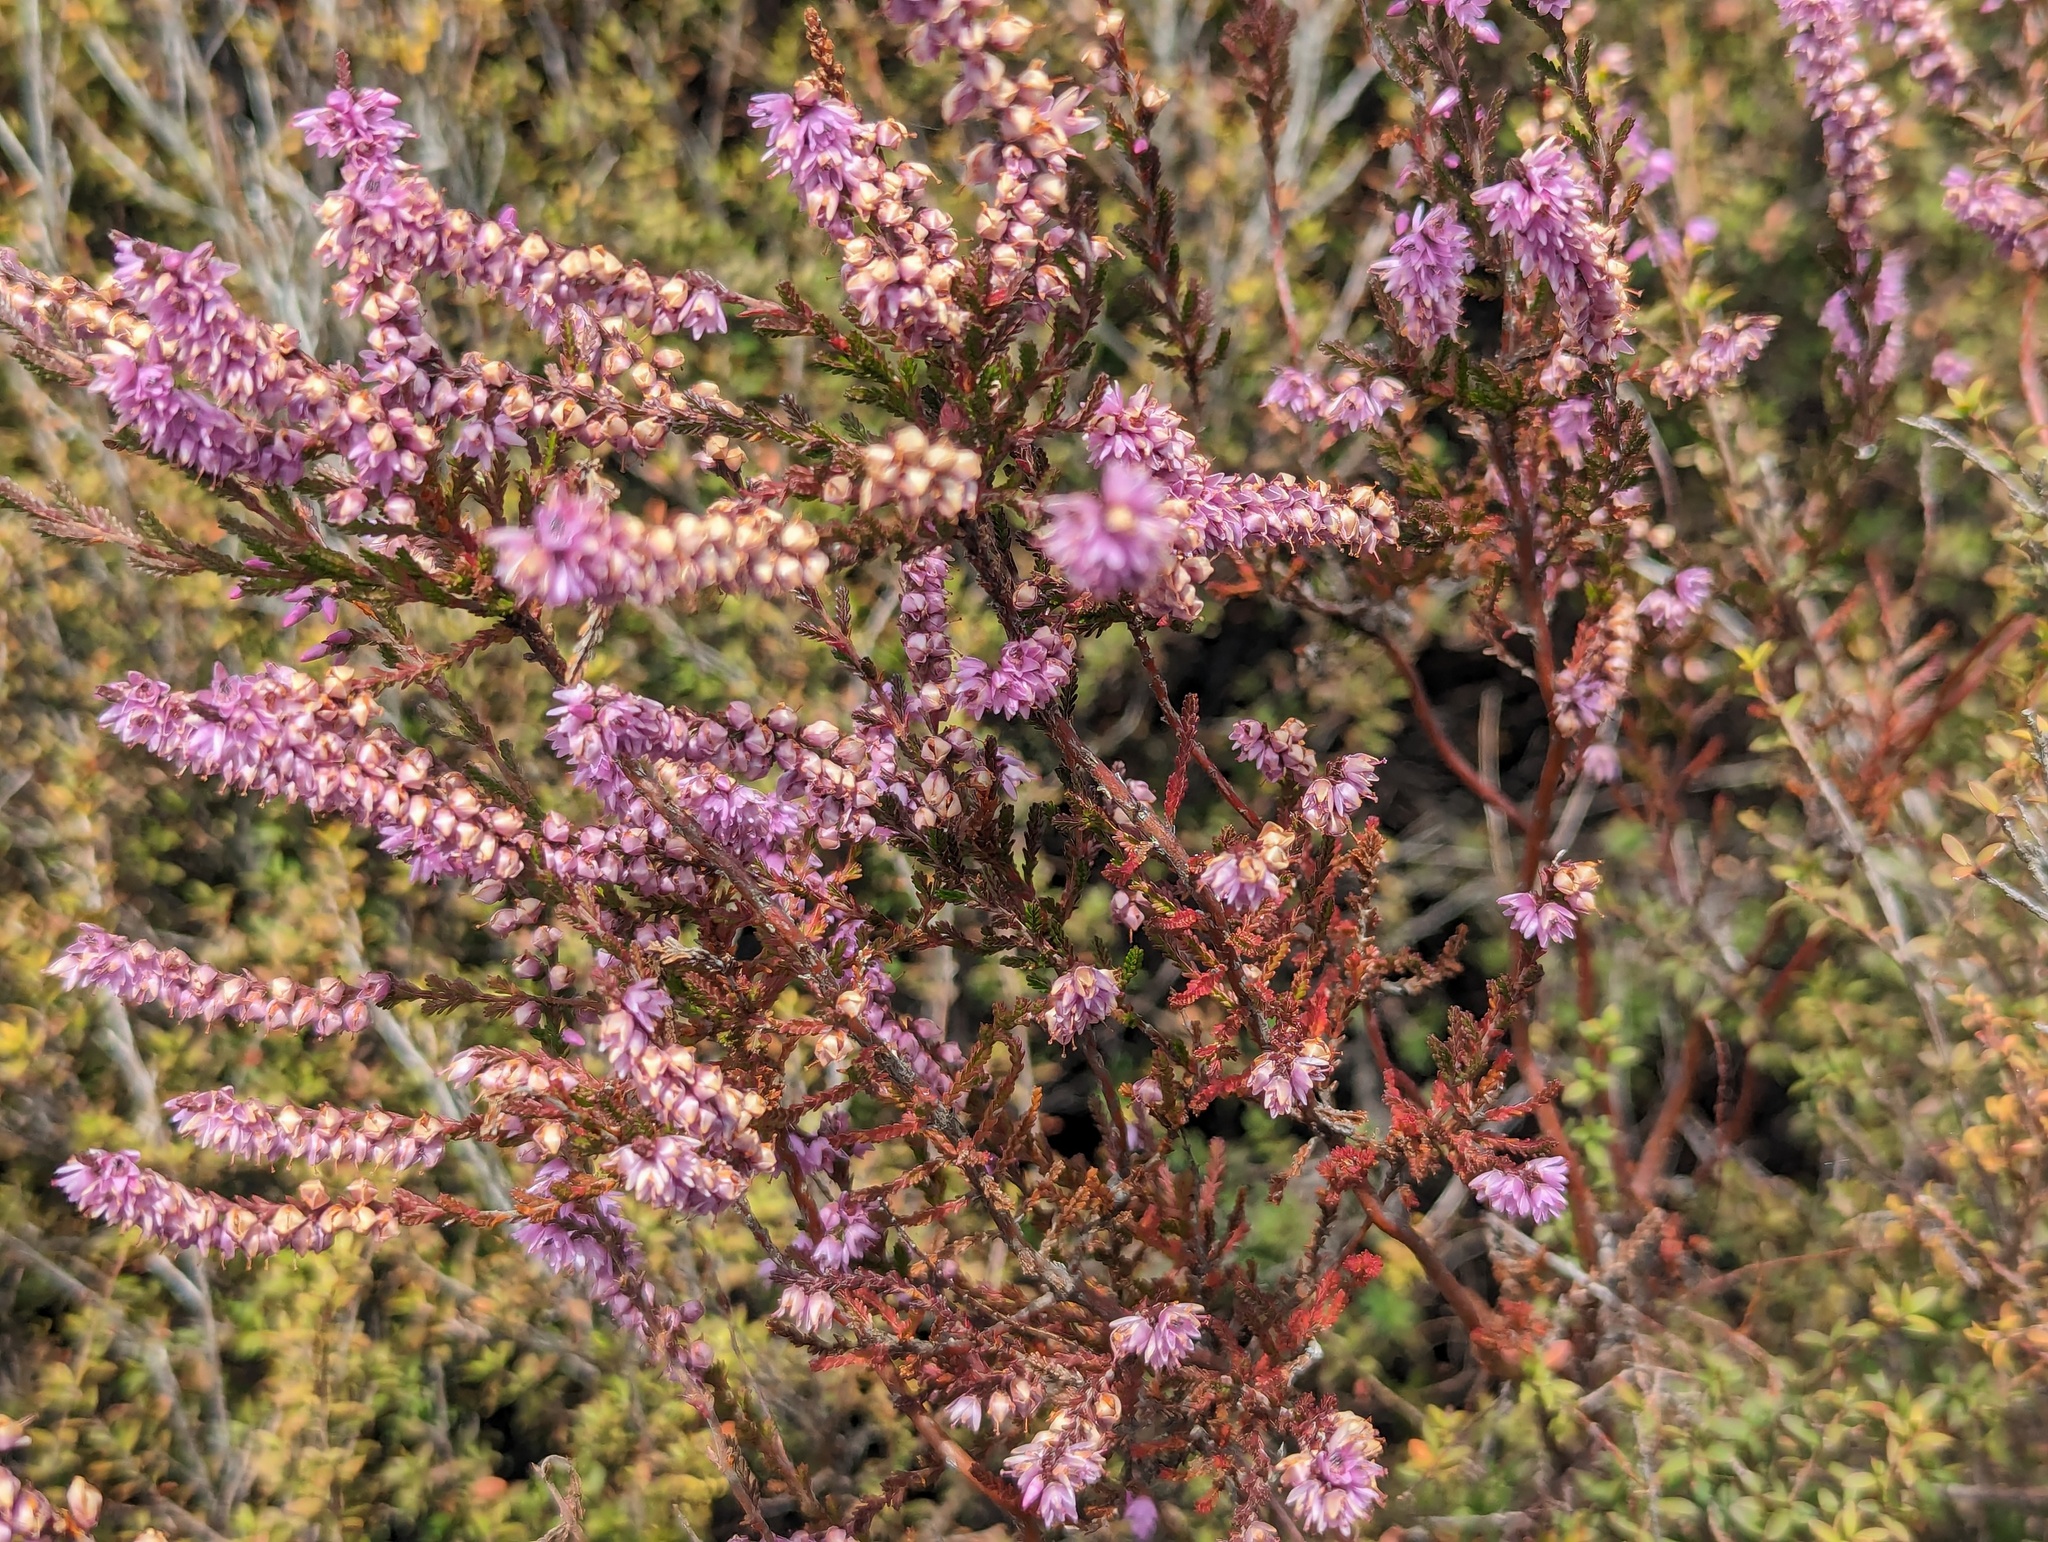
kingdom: Plantae
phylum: Tracheophyta
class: Magnoliopsida
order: Ericales
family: Ericaceae
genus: Calluna
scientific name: Calluna vulgaris
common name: Heather
